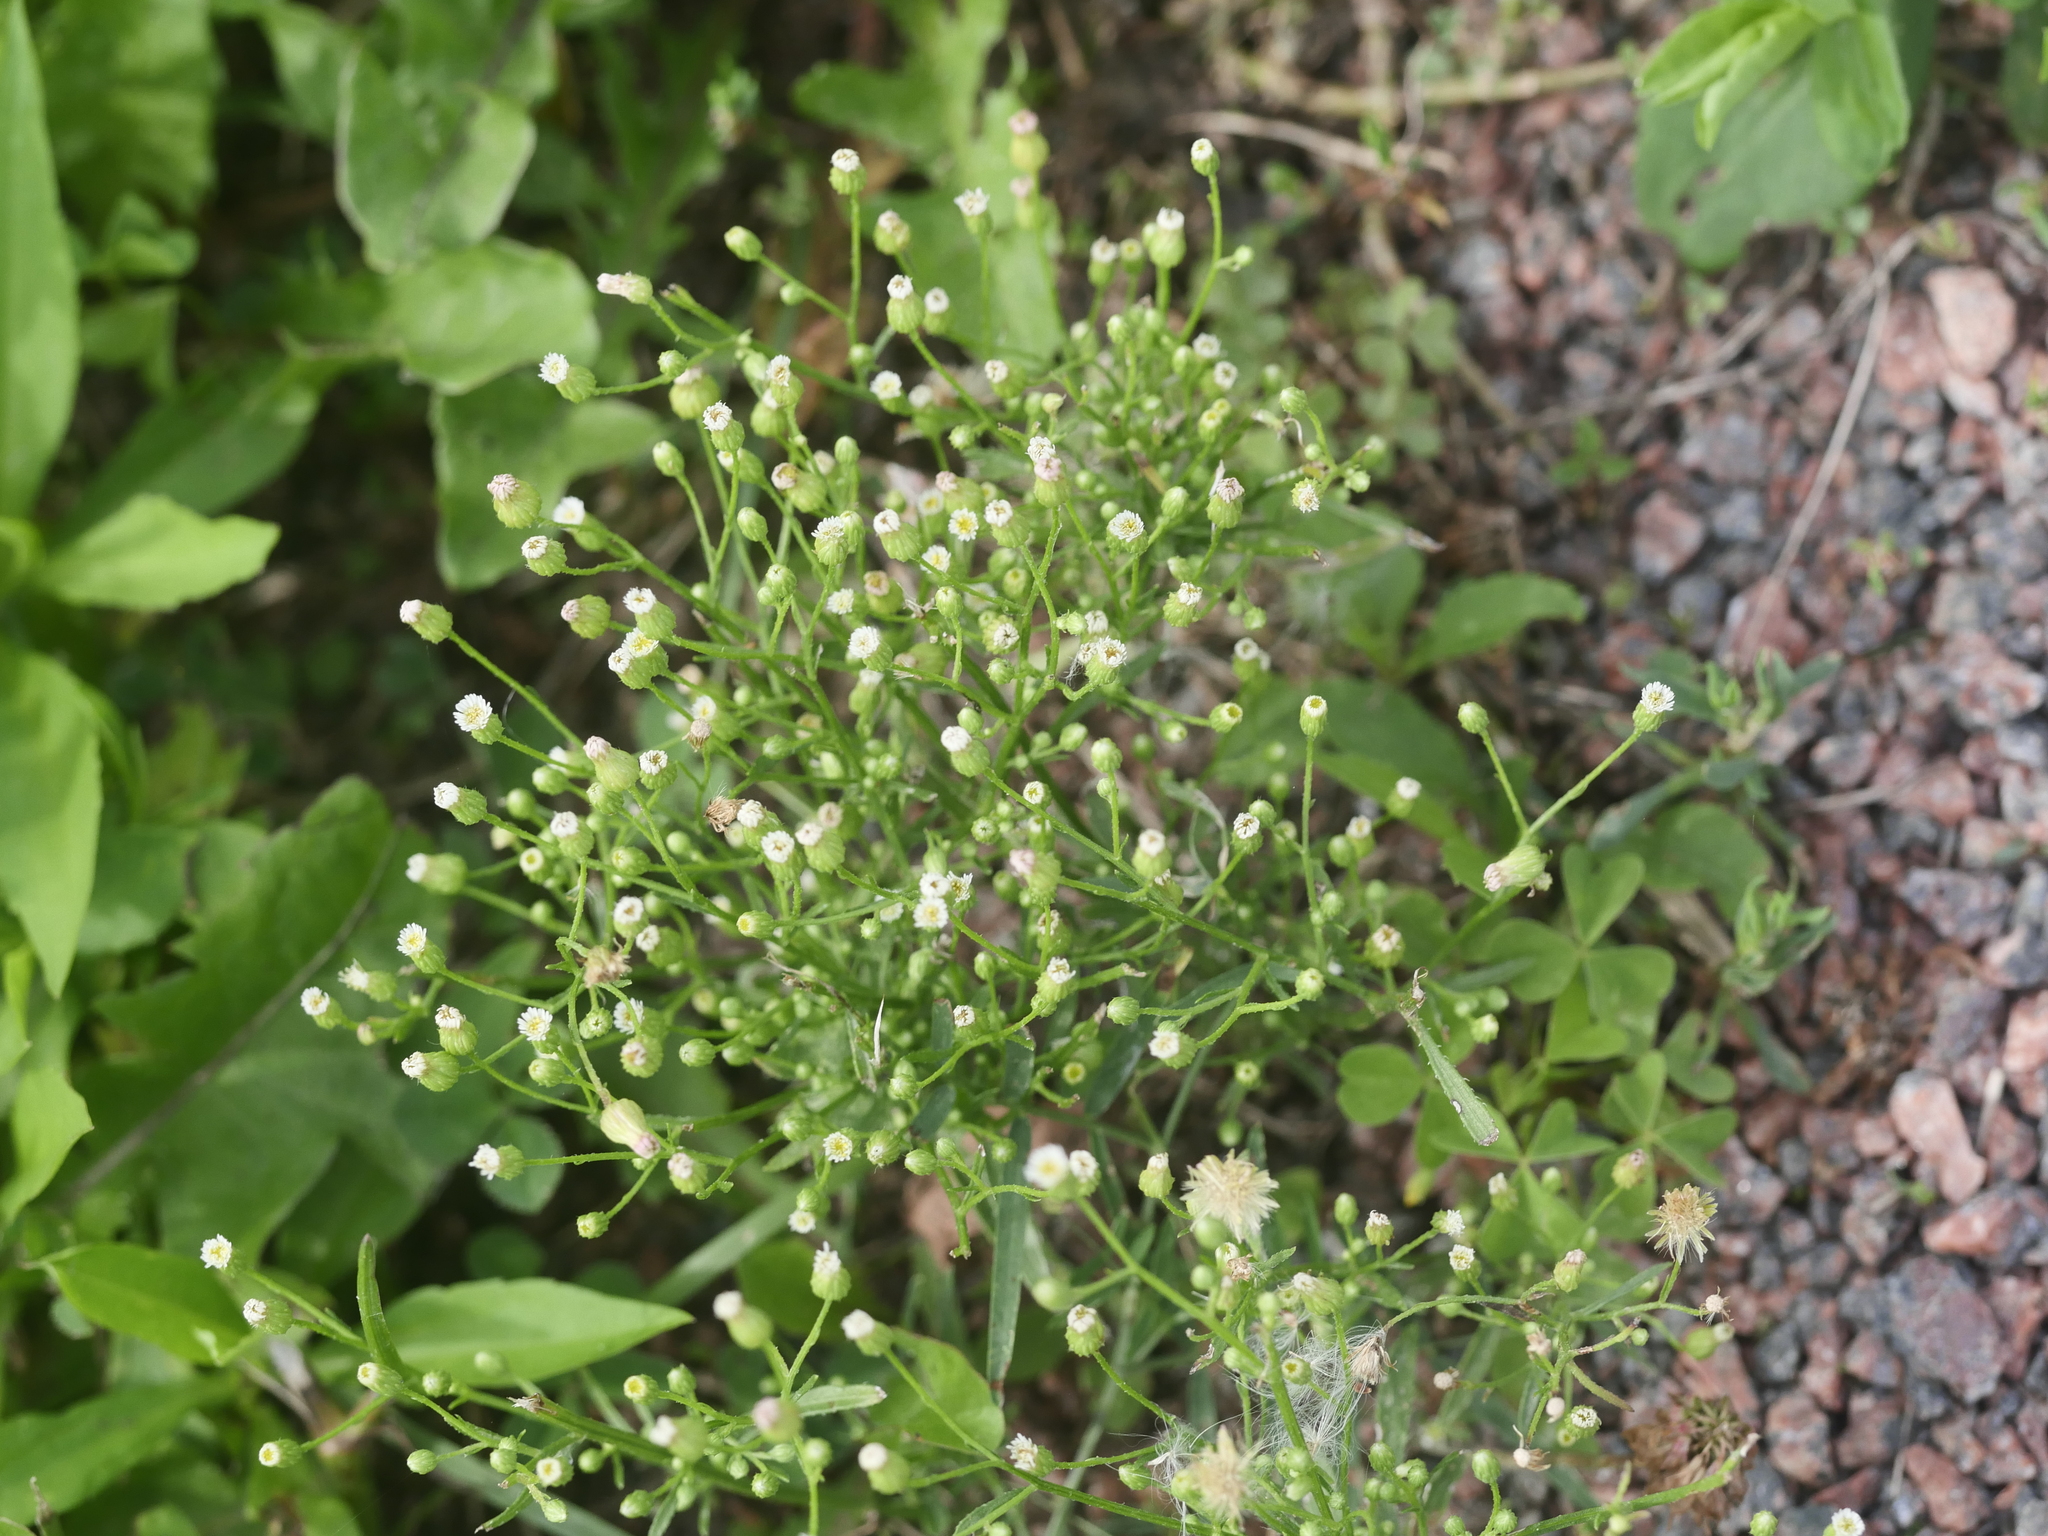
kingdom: Plantae
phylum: Tracheophyta
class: Magnoliopsida
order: Asterales
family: Asteraceae
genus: Erigeron
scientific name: Erigeron canadensis
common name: Canadian fleabane
